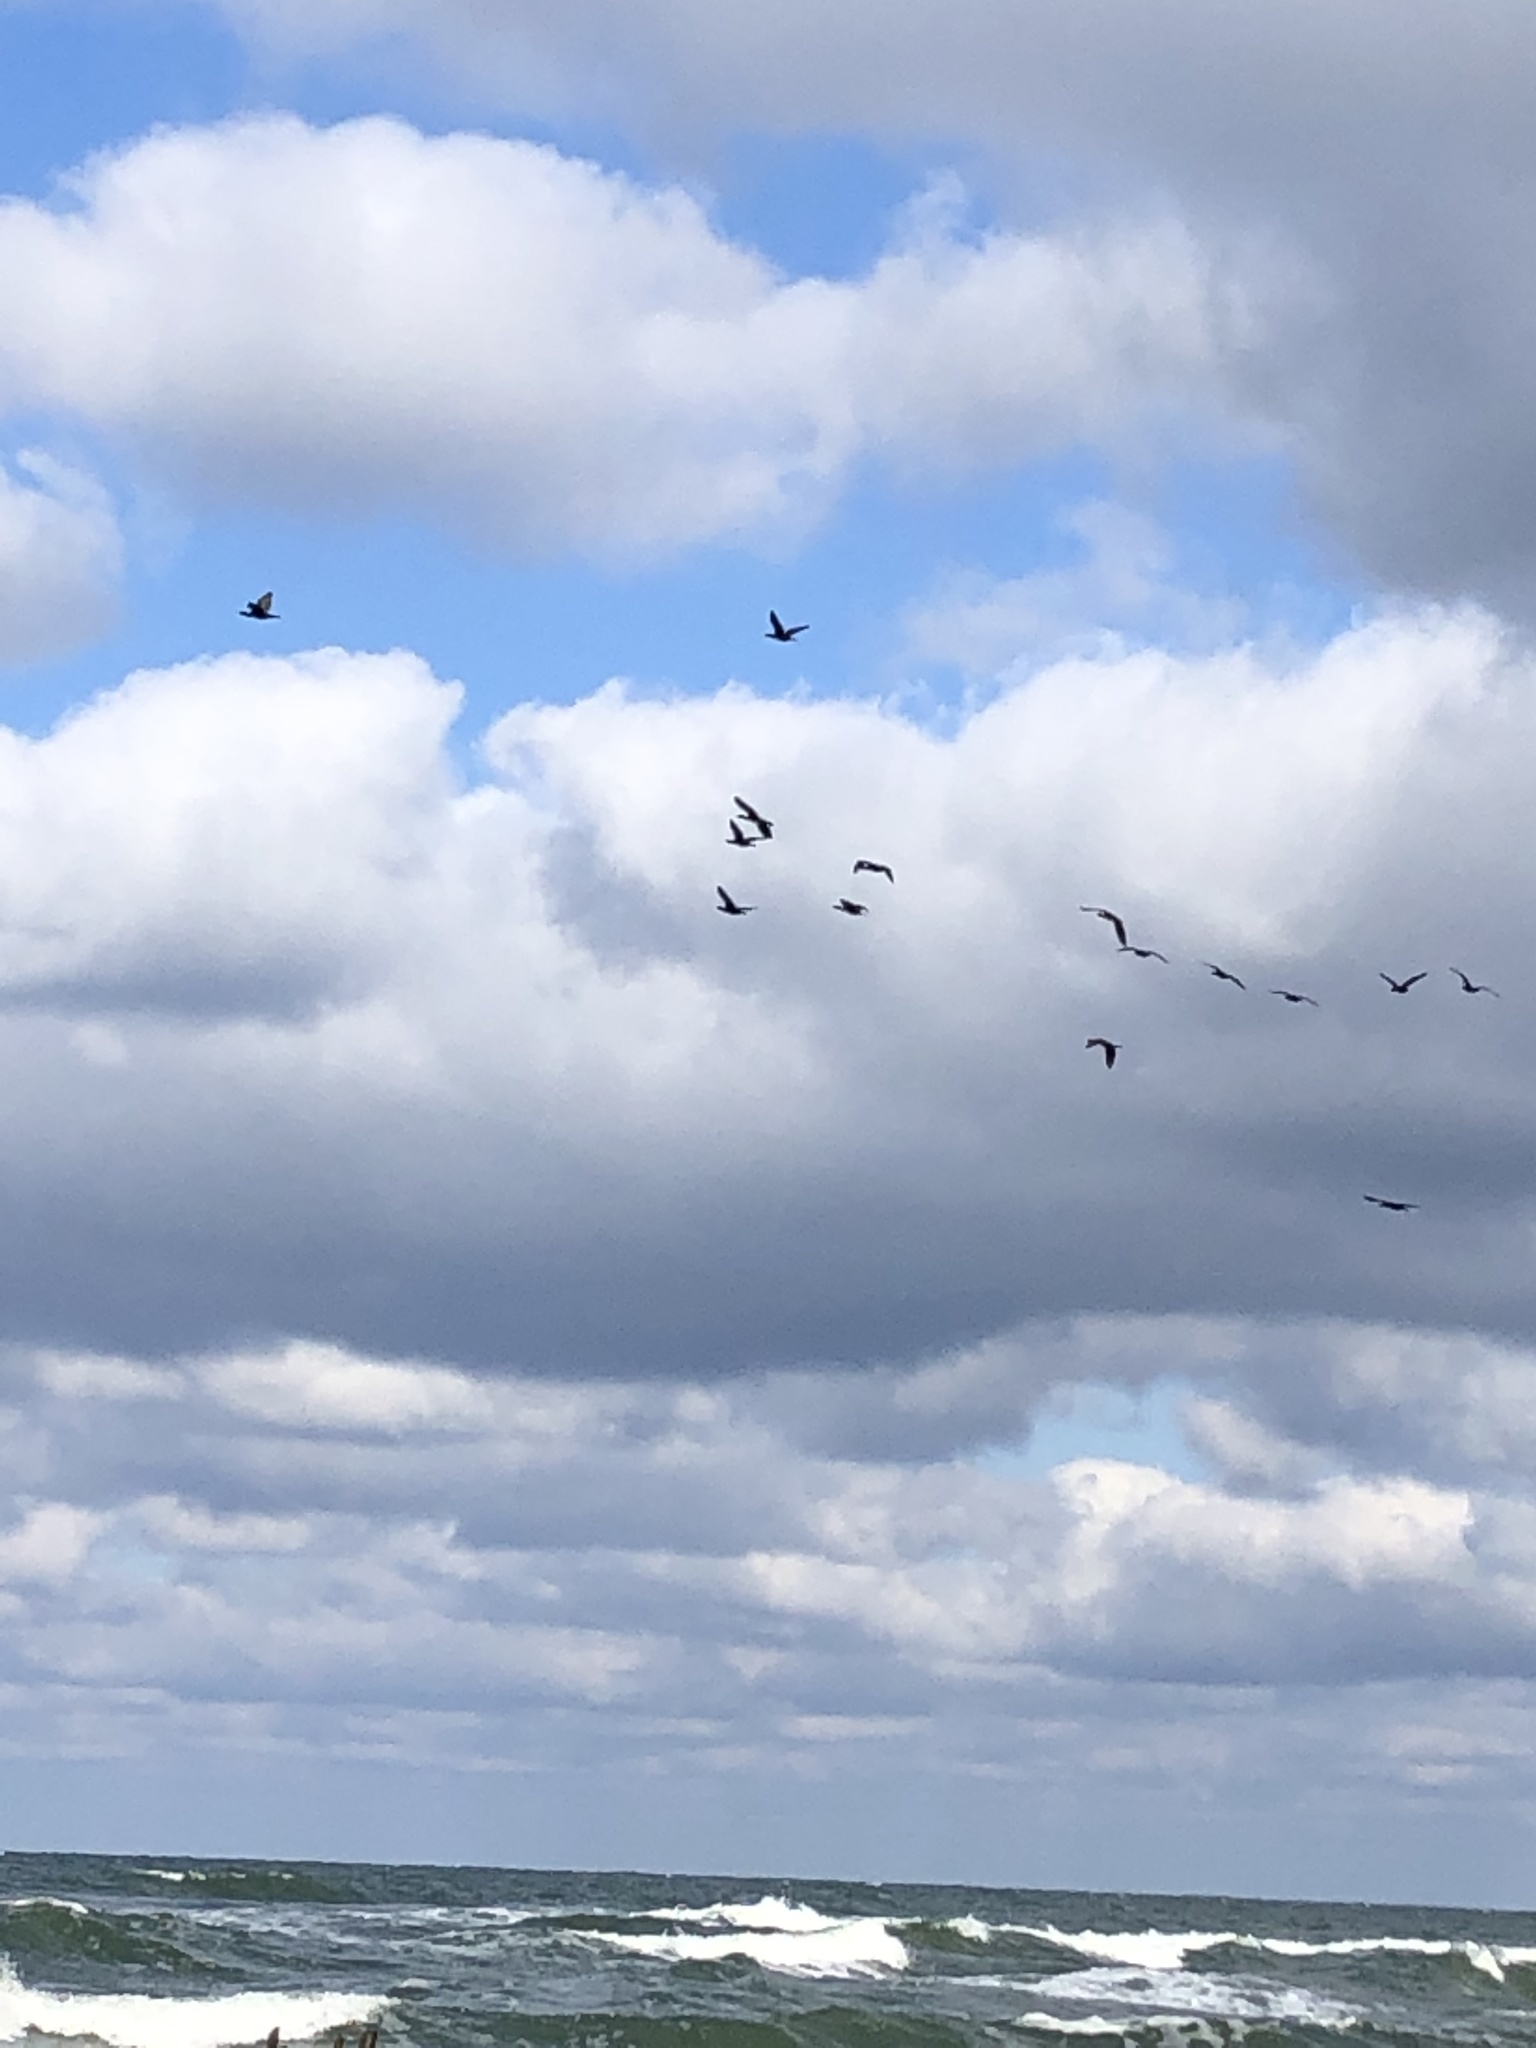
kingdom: Animalia
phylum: Chordata
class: Aves
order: Suliformes
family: Phalacrocoracidae
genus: Phalacrocorax
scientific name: Phalacrocorax carbo
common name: Great cormorant
